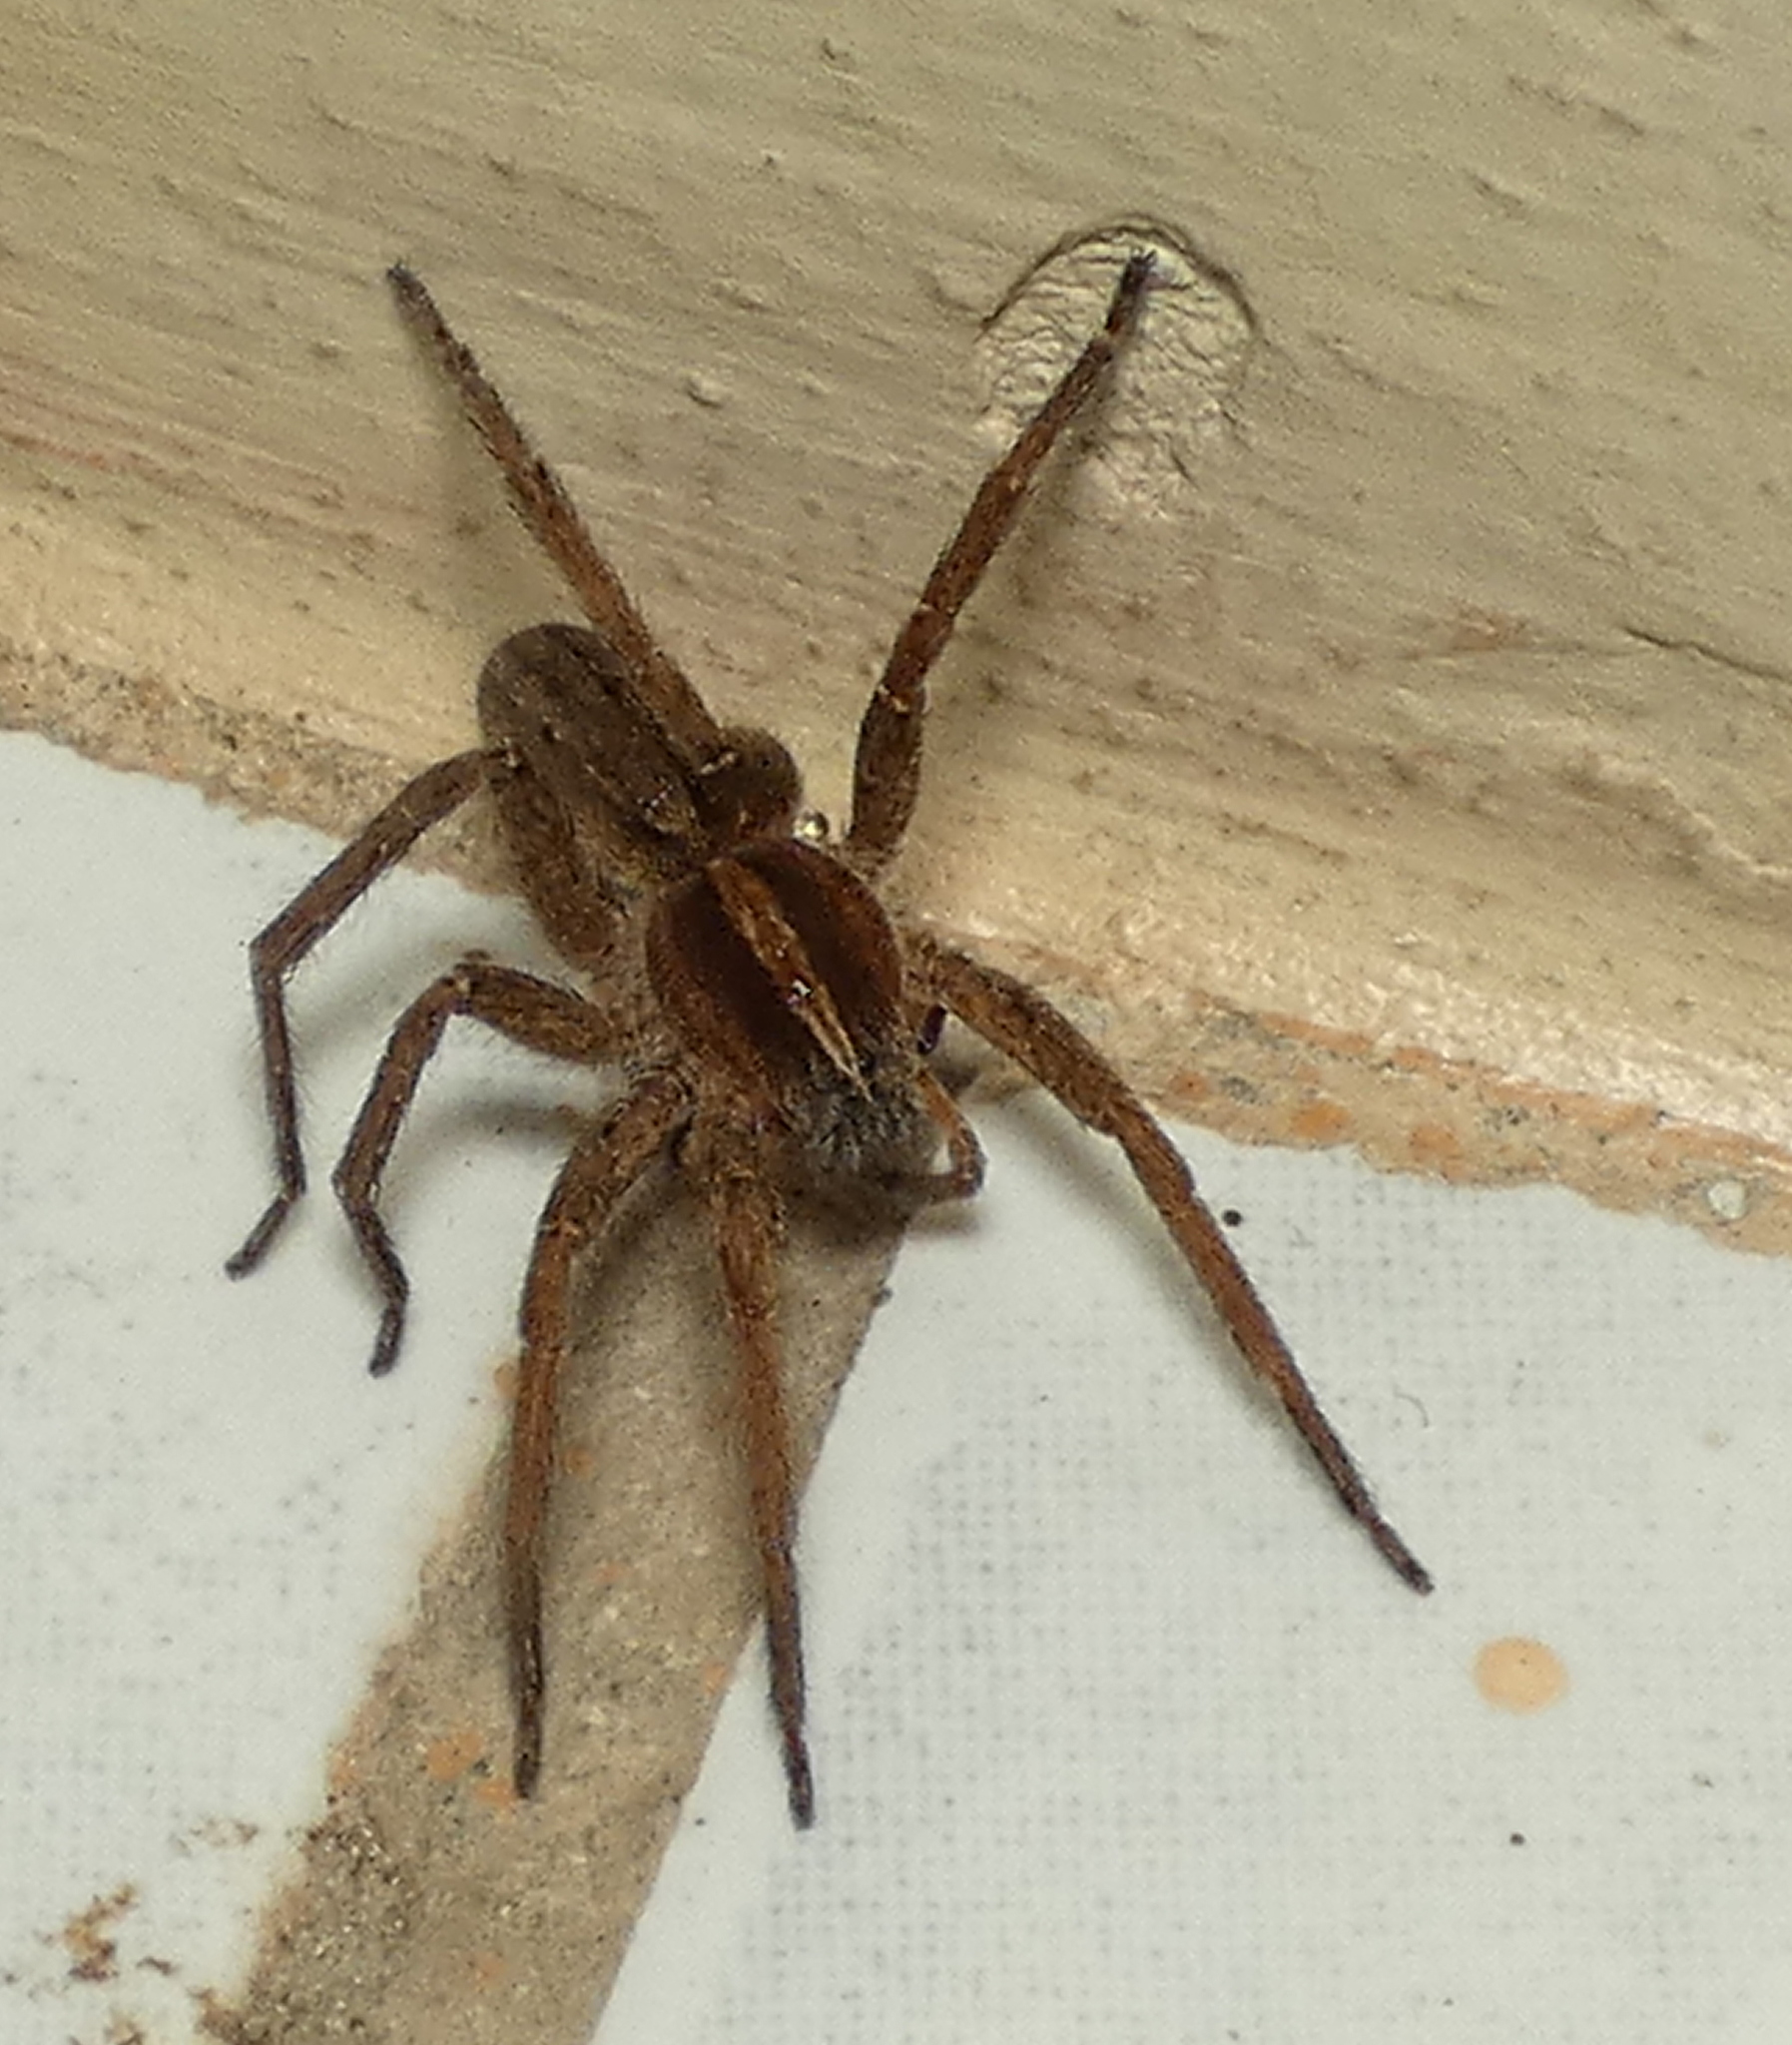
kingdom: Animalia
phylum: Arthropoda
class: Arachnida
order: Araneae
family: Ctenidae
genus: Parabatinga
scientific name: Parabatinga brevipes
